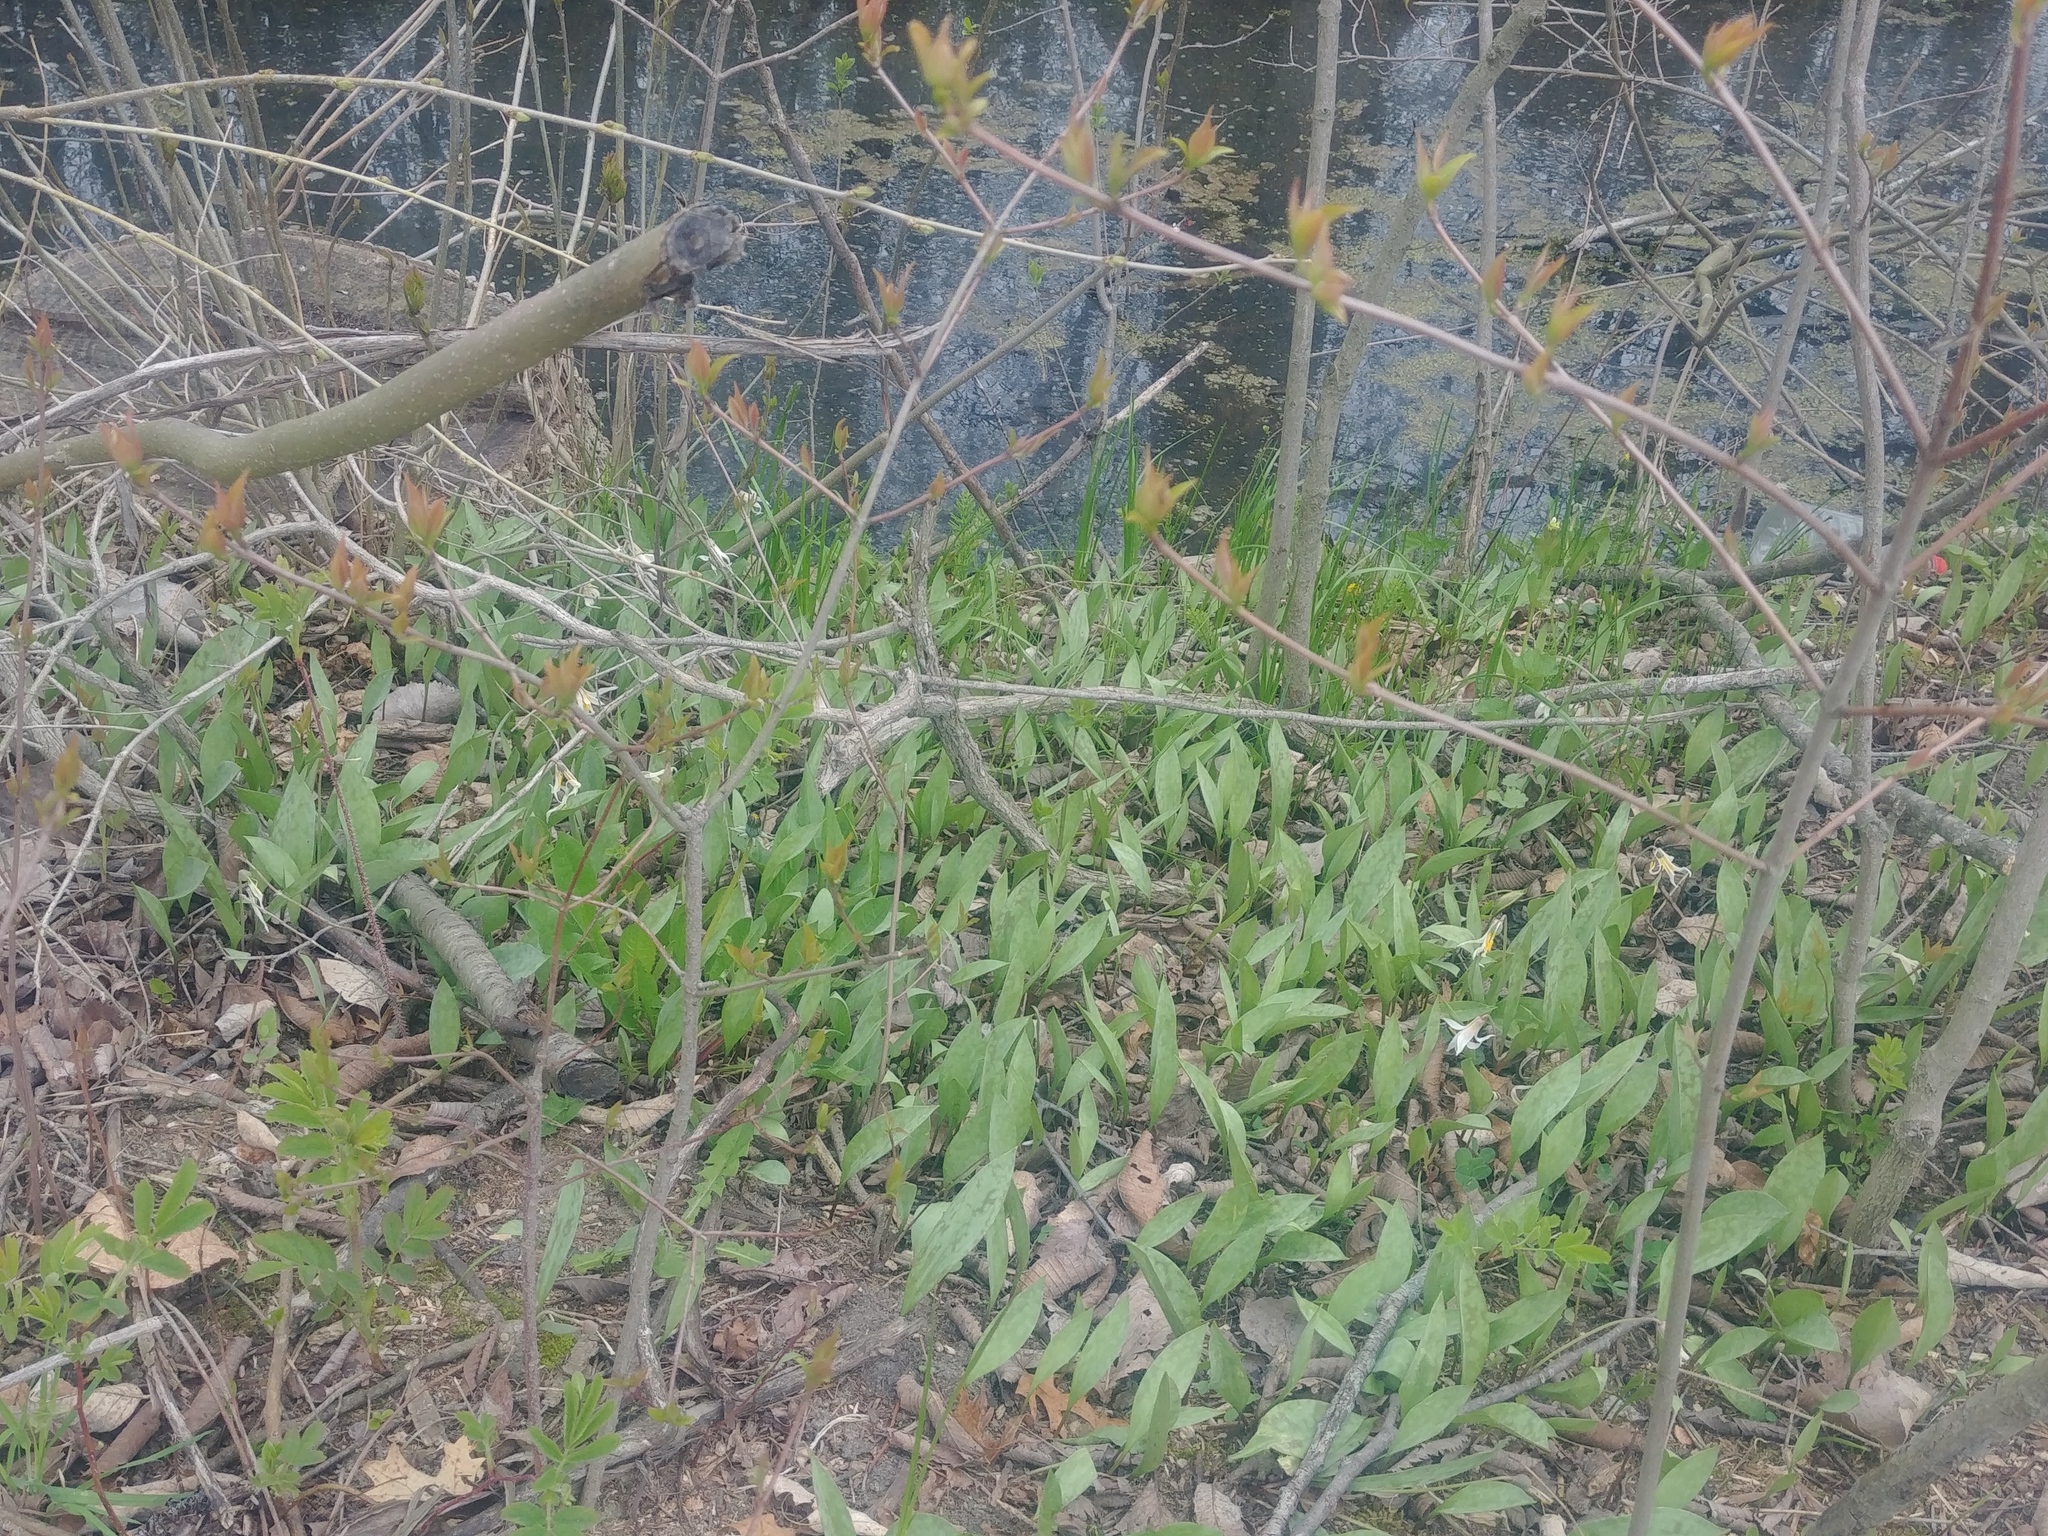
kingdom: Plantae
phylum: Tracheophyta
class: Liliopsida
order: Liliales
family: Liliaceae
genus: Erythronium
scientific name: Erythronium albidum
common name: White trout-lily
